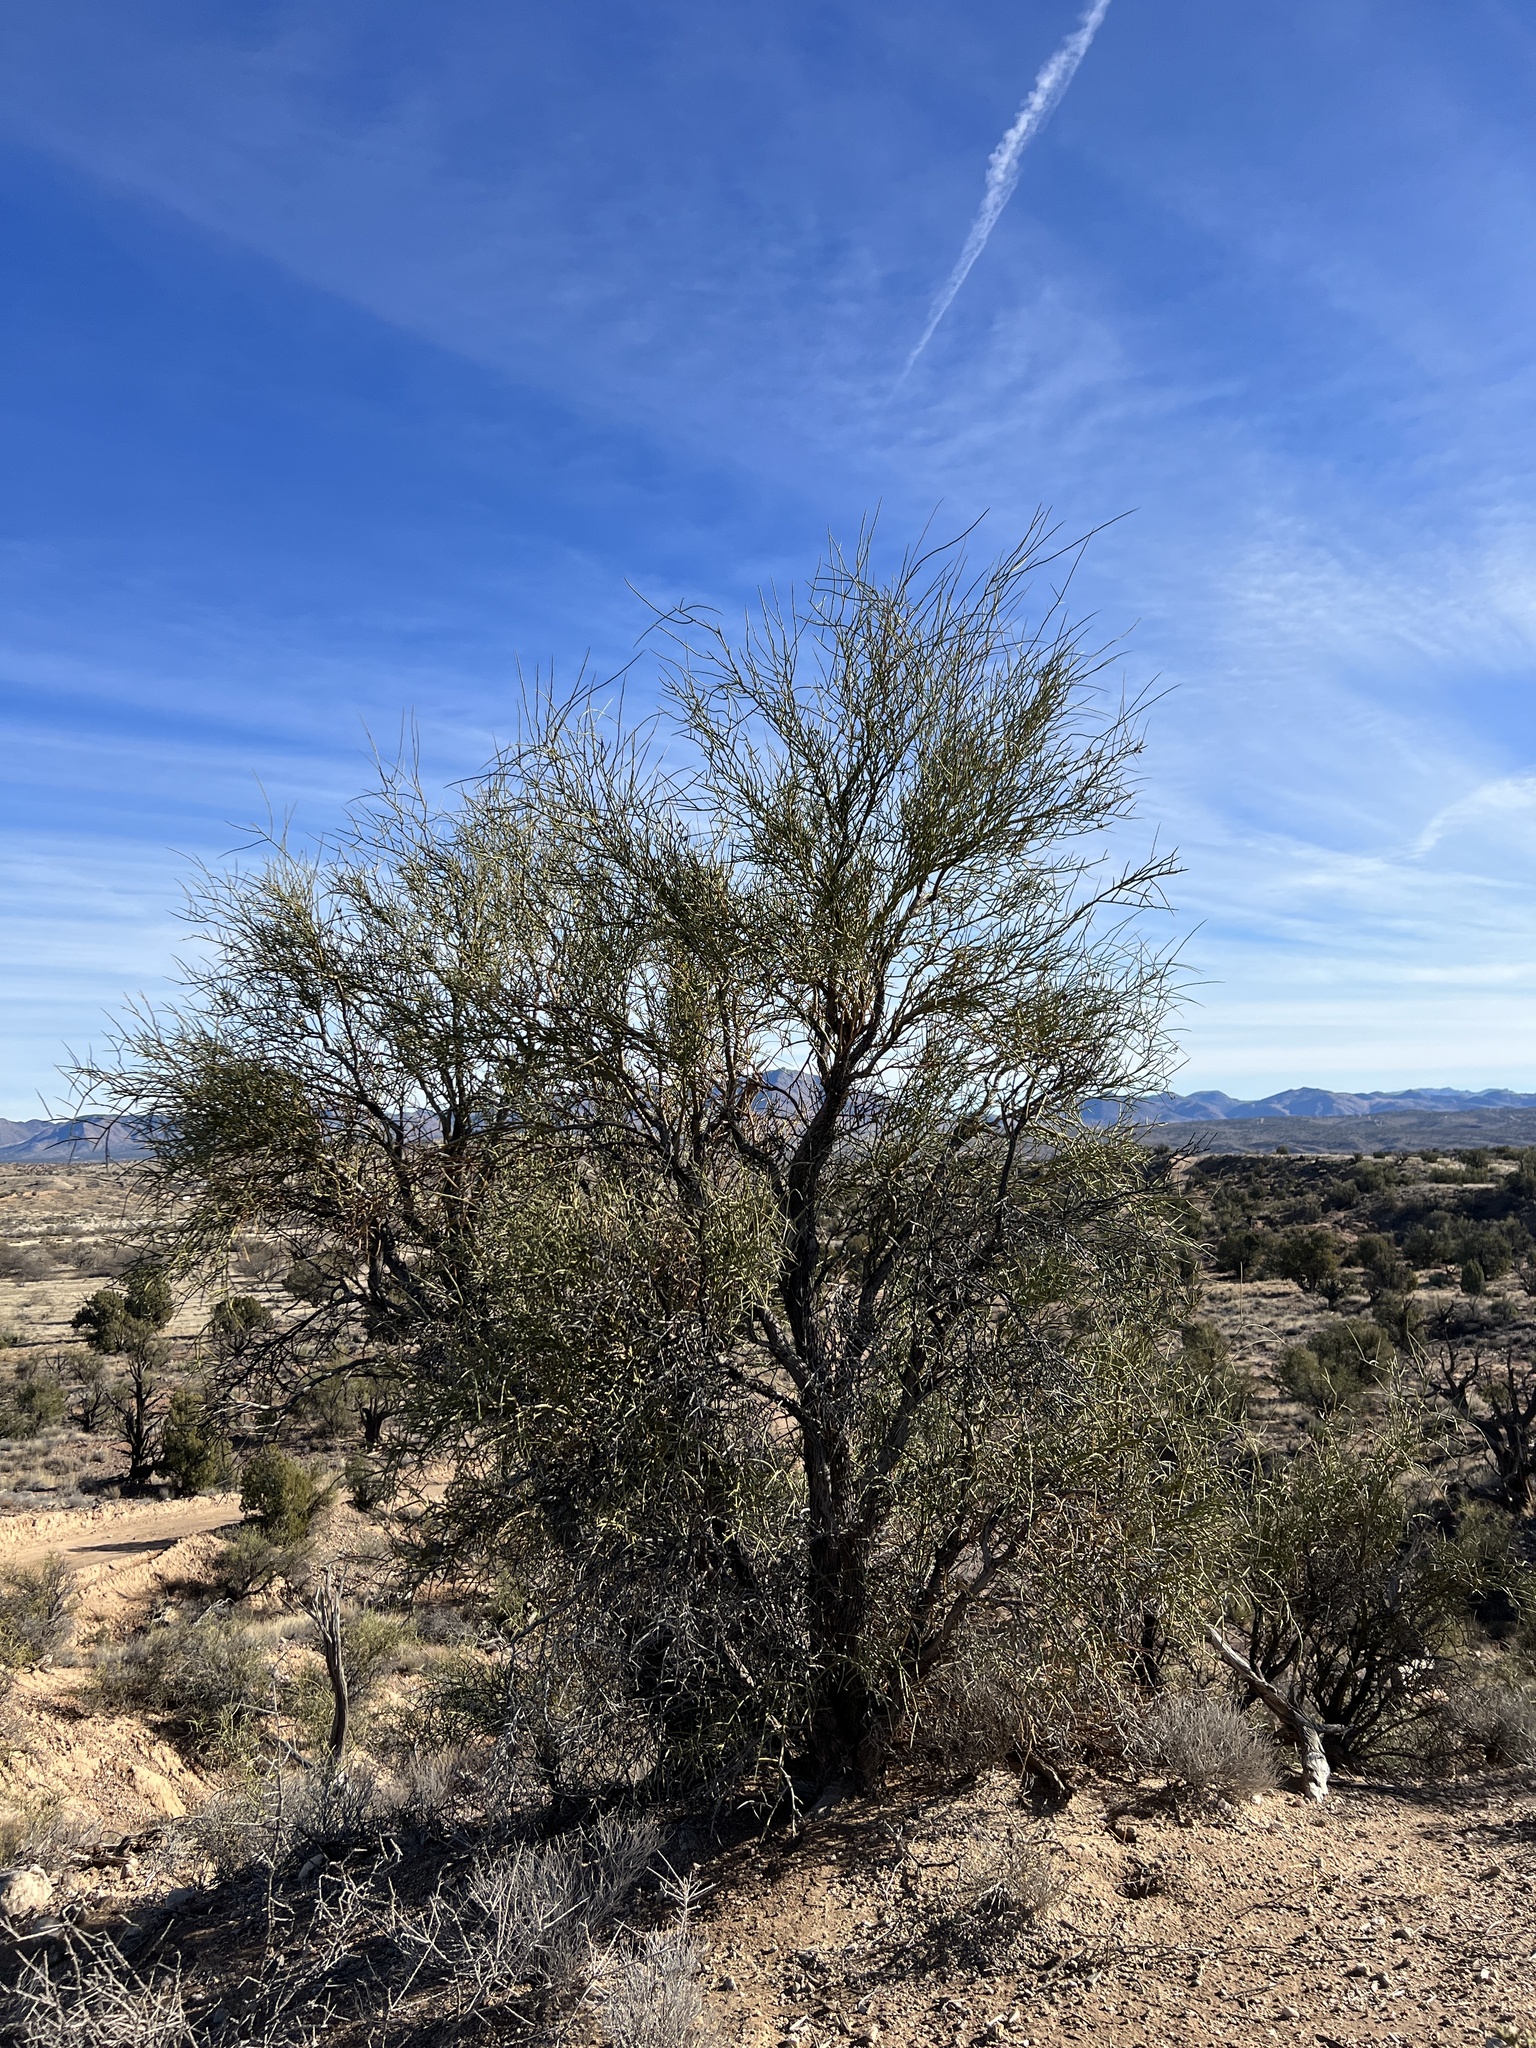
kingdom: Plantae
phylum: Tracheophyta
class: Magnoliopsida
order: Celastrales
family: Celastraceae
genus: Canotia
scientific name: Canotia holacantha
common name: Crucifixion thorns
